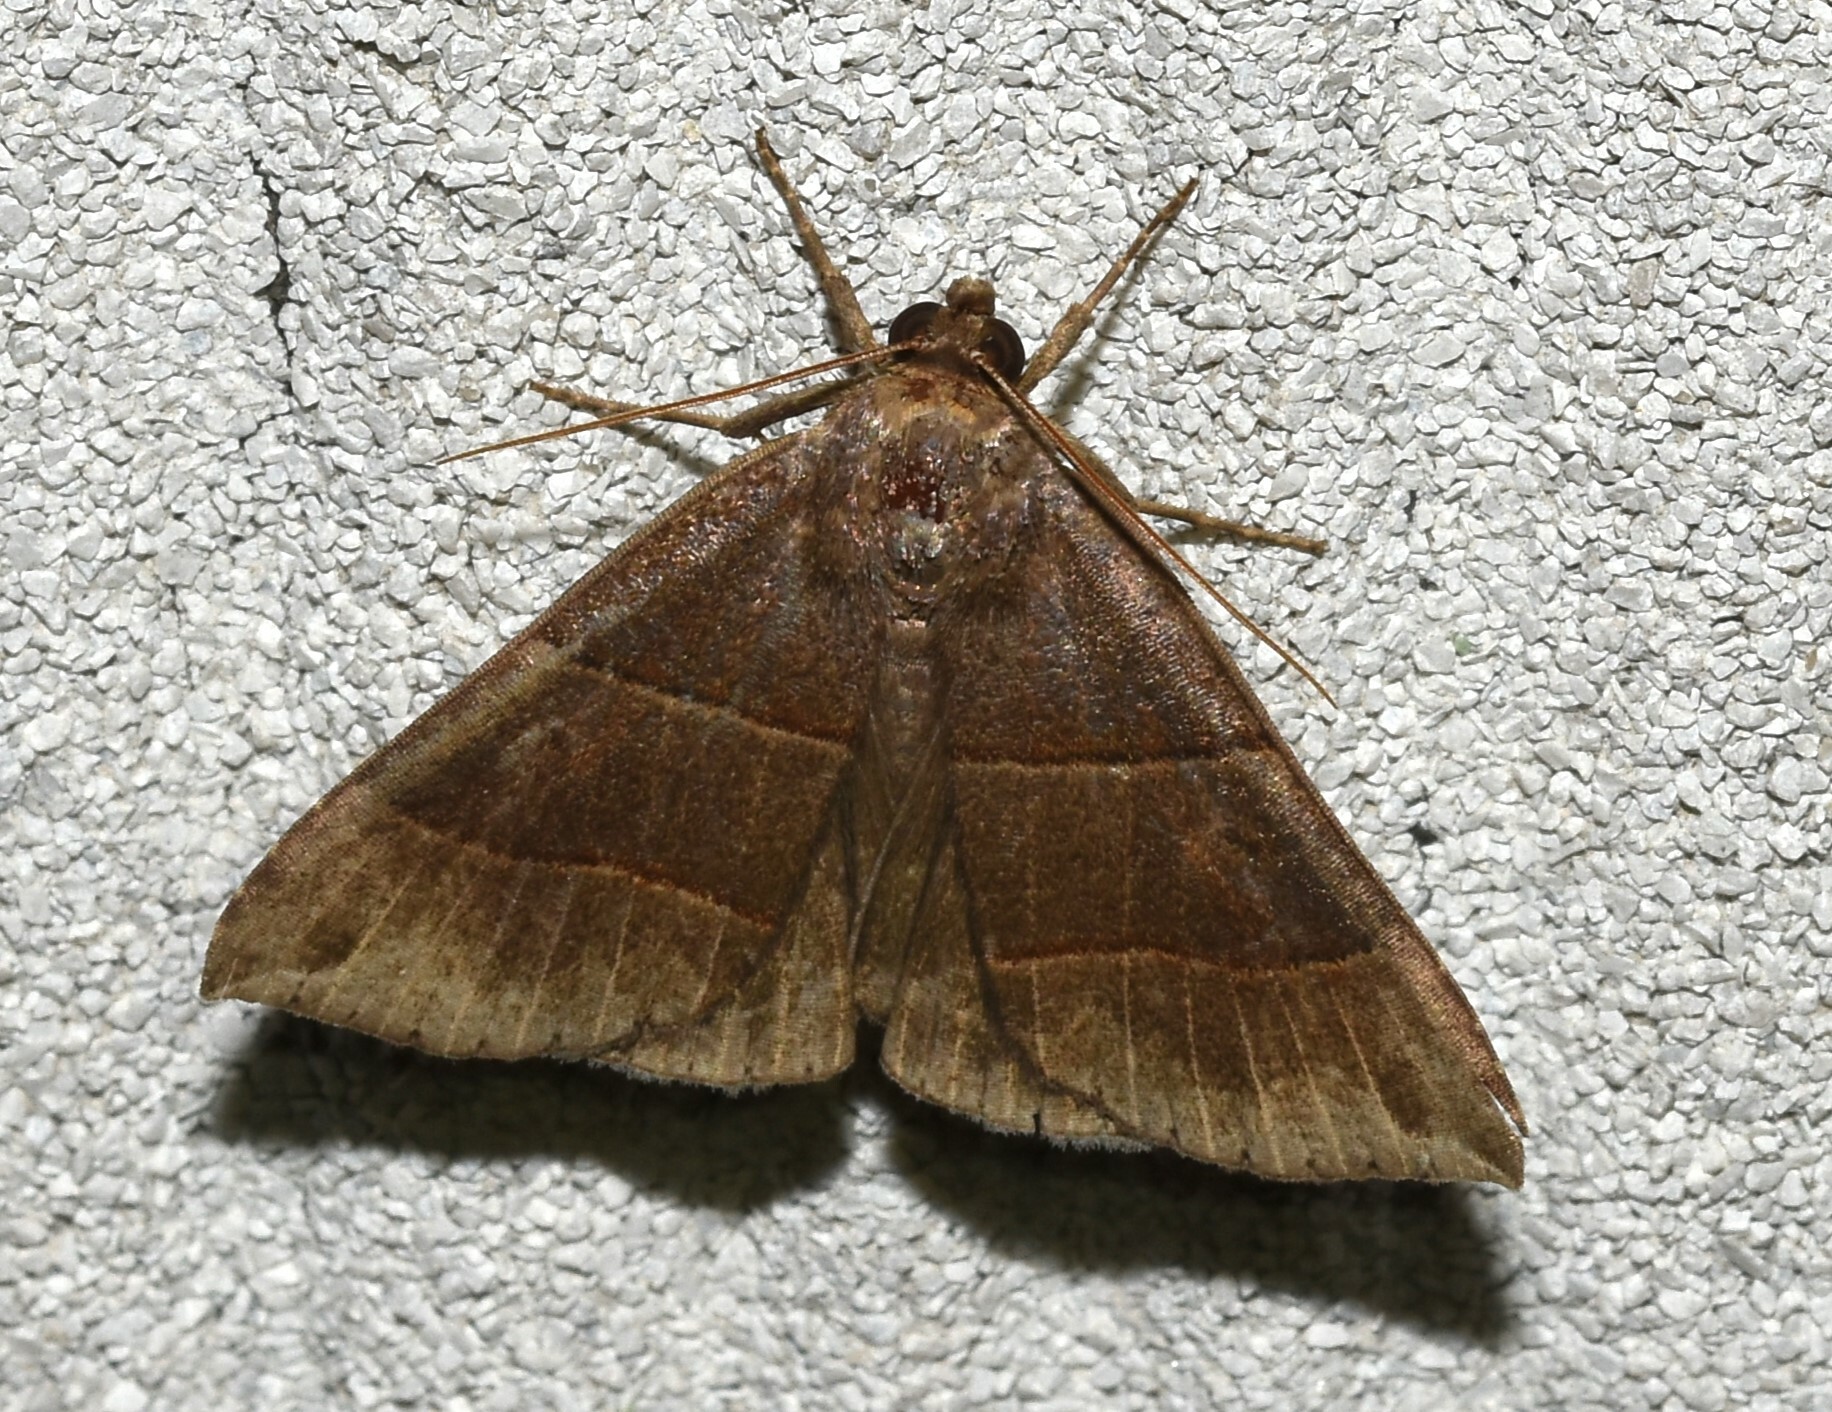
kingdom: Animalia
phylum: Arthropoda
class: Insecta
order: Lepidoptera
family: Erebidae
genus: Parallelia
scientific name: Parallelia bistriaris
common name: Maple looper moth
